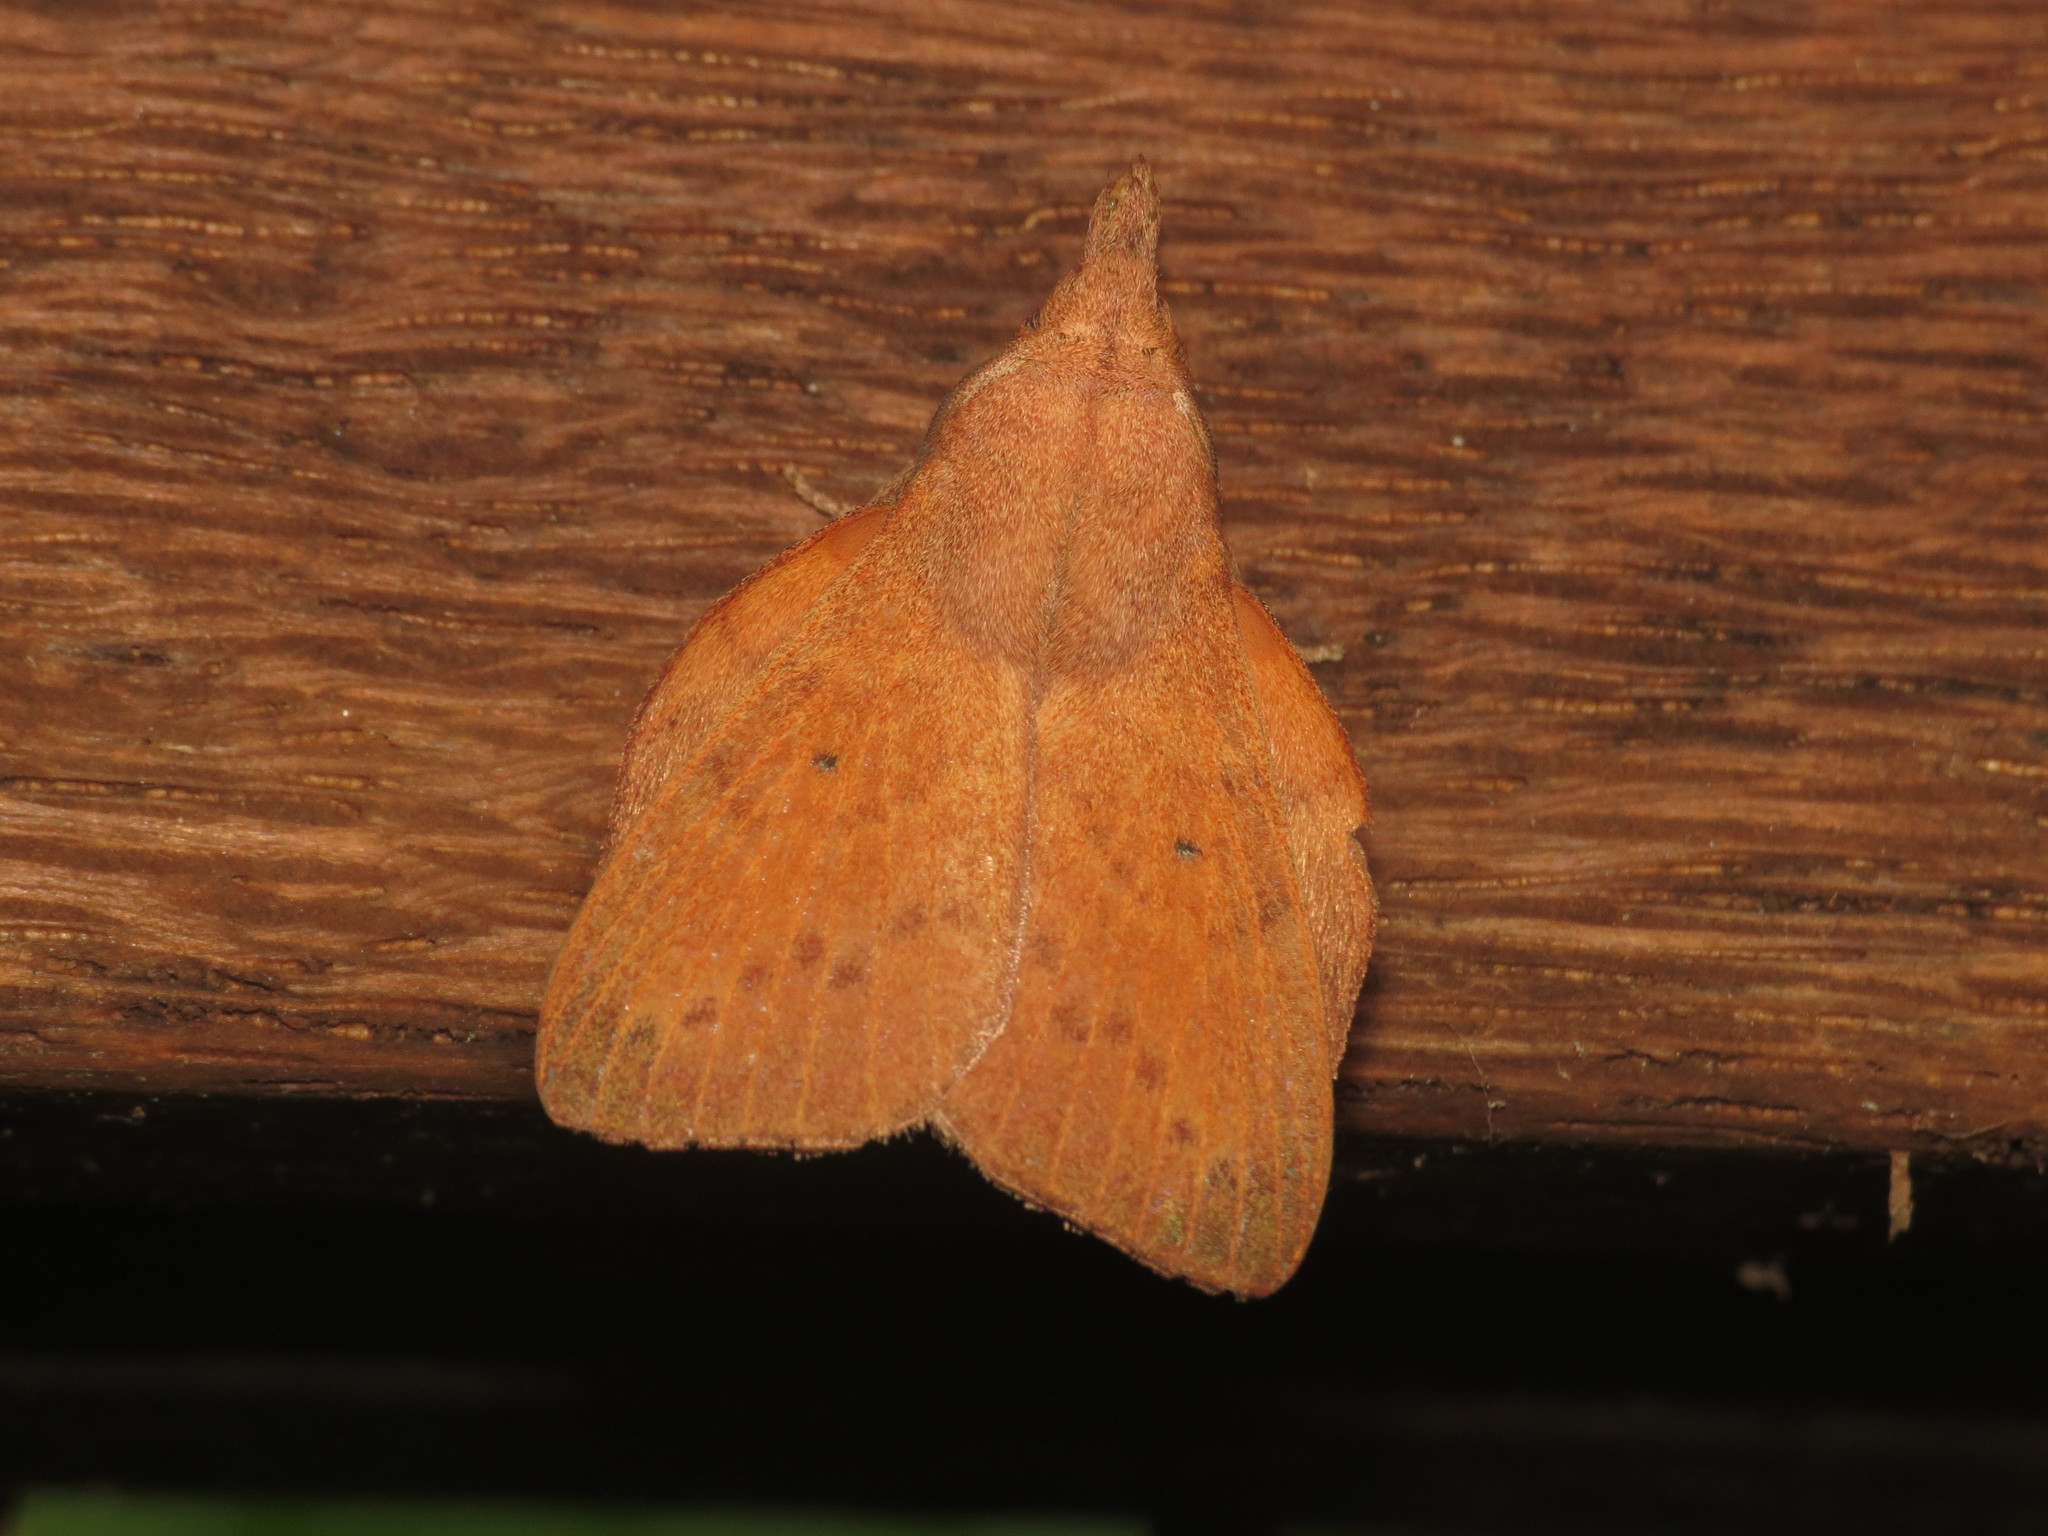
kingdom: Animalia
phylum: Arthropoda
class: Insecta
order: Lepidoptera
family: Lasiocampidae
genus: Pararguda
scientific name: Pararguda tephropsis
